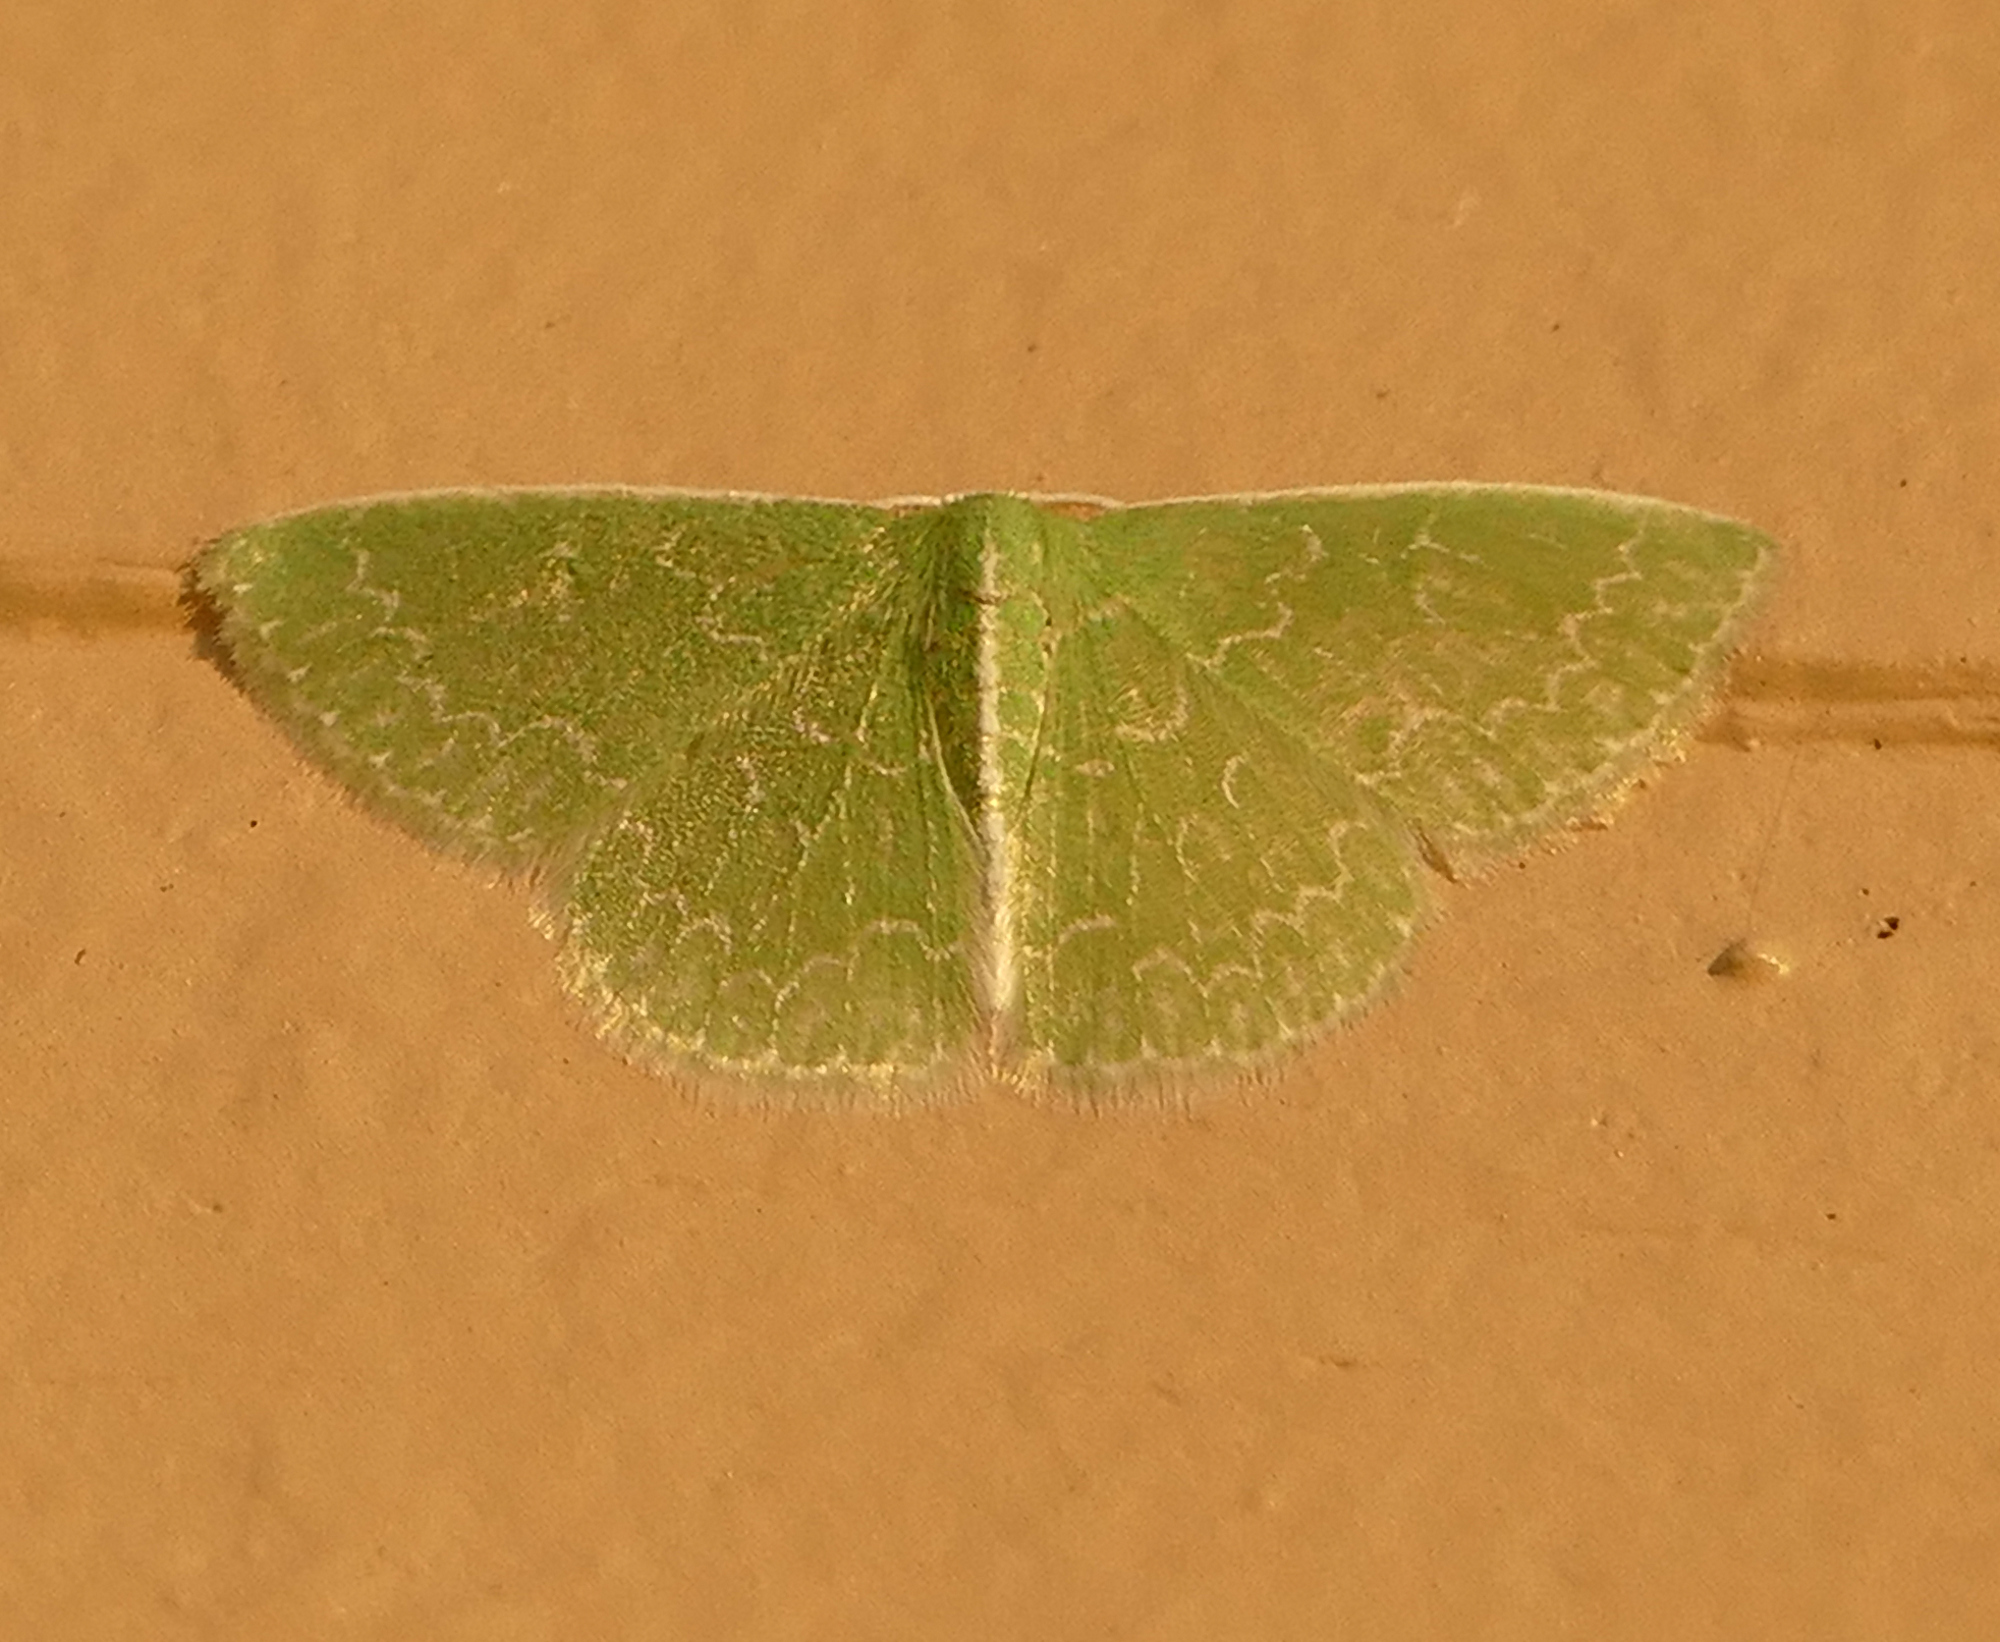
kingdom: Animalia
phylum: Arthropoda
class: Insecta
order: Lepidoptera
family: Geometridae
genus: Synchlora
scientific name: Synchlora frondaria
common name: Southern emerald
